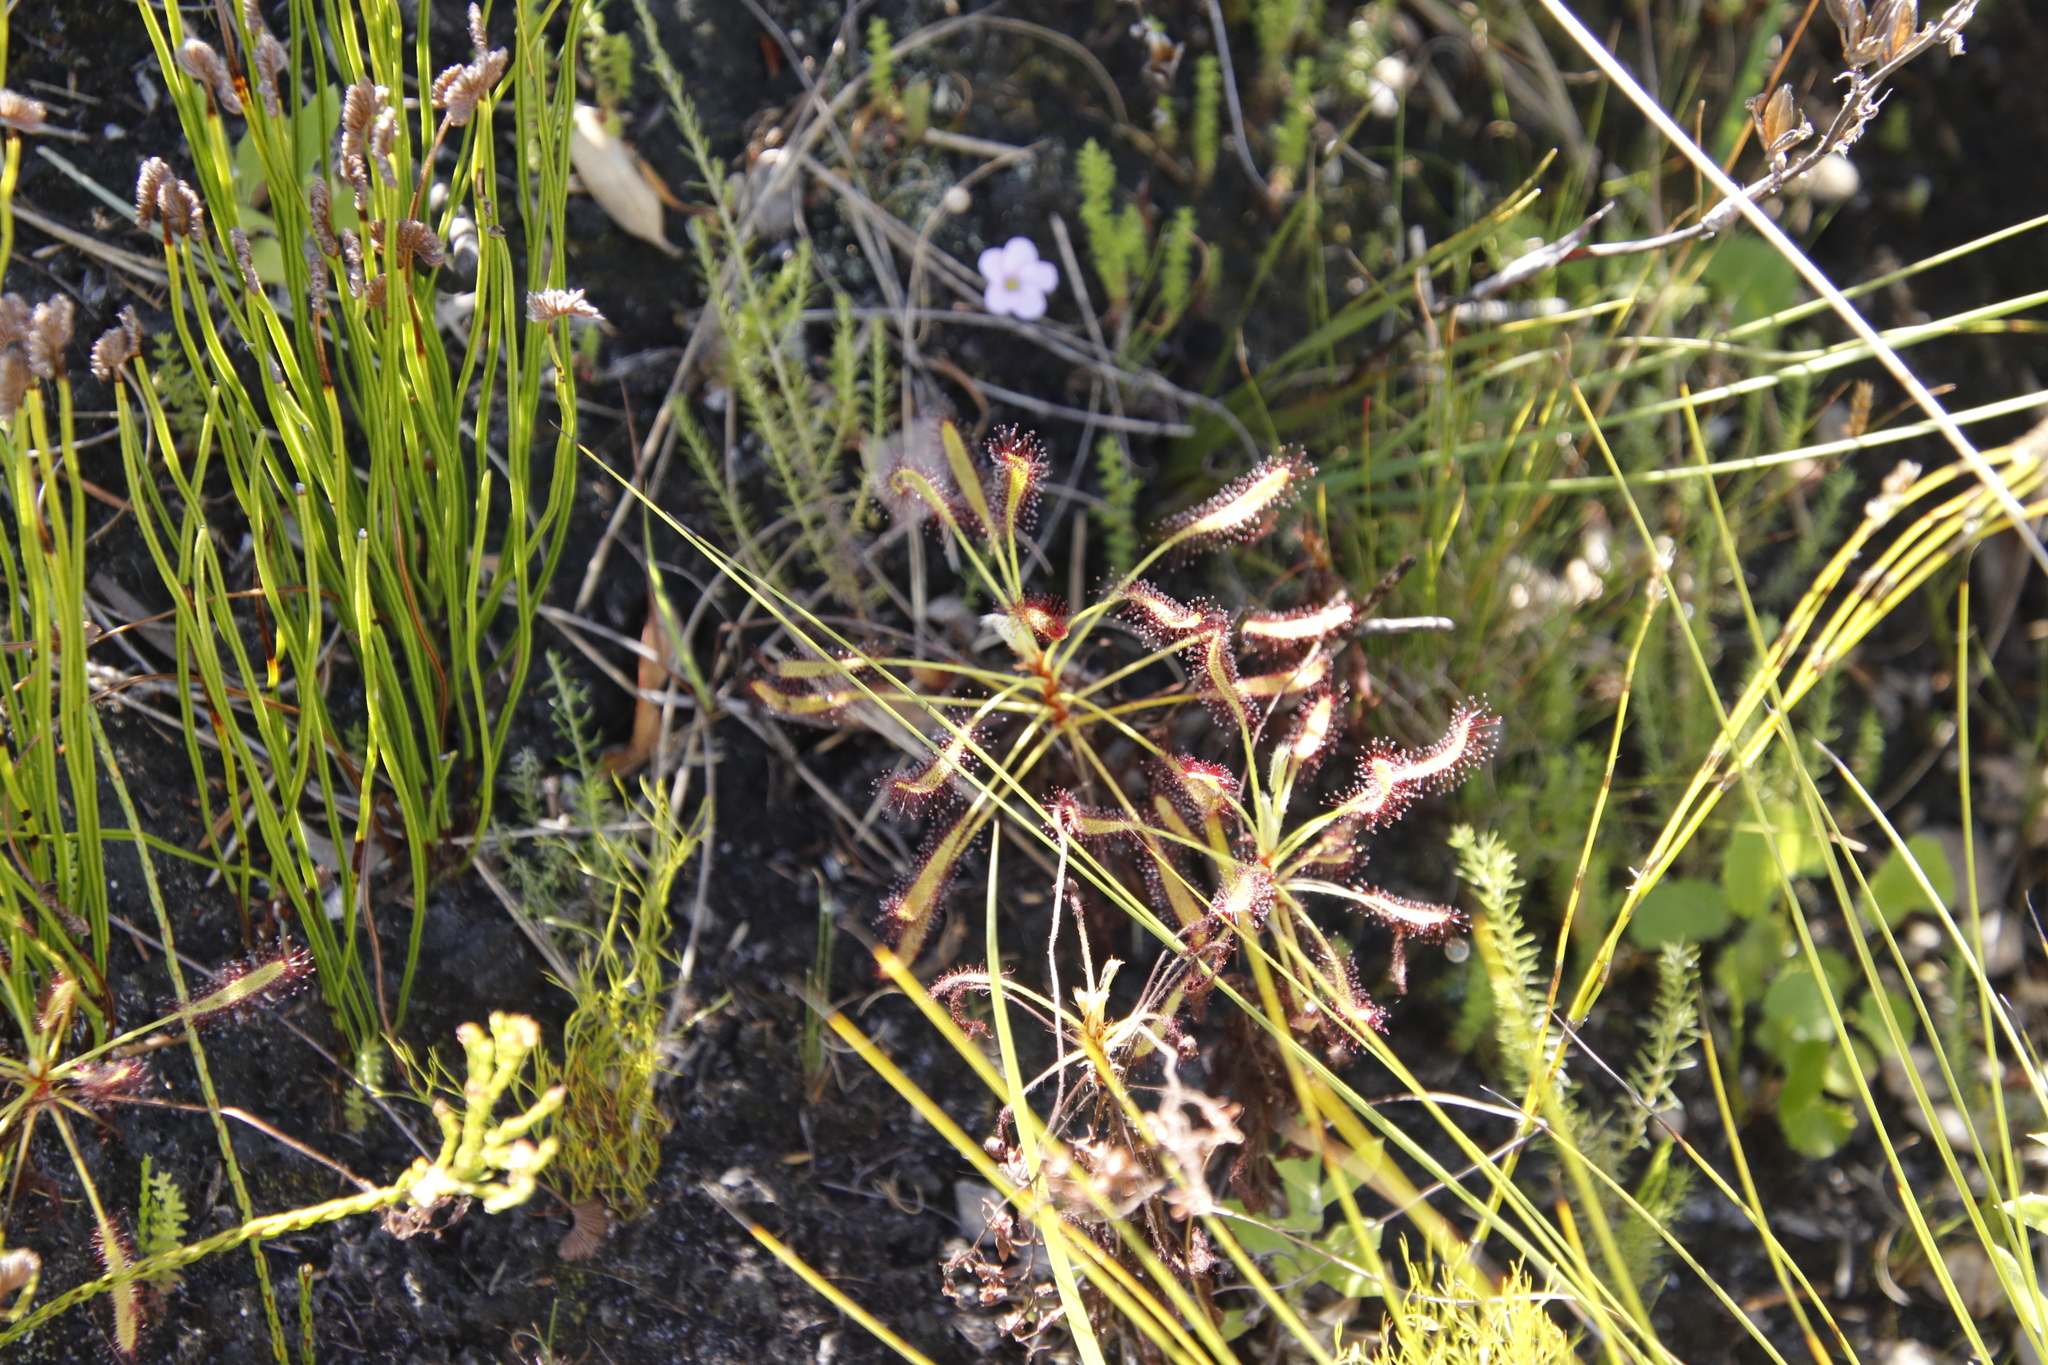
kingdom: Plantae
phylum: Tracheophyta
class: Magnoliopsida
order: Caryophyllales
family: Droseraceae
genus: Drosera
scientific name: Drosera ramentacea
